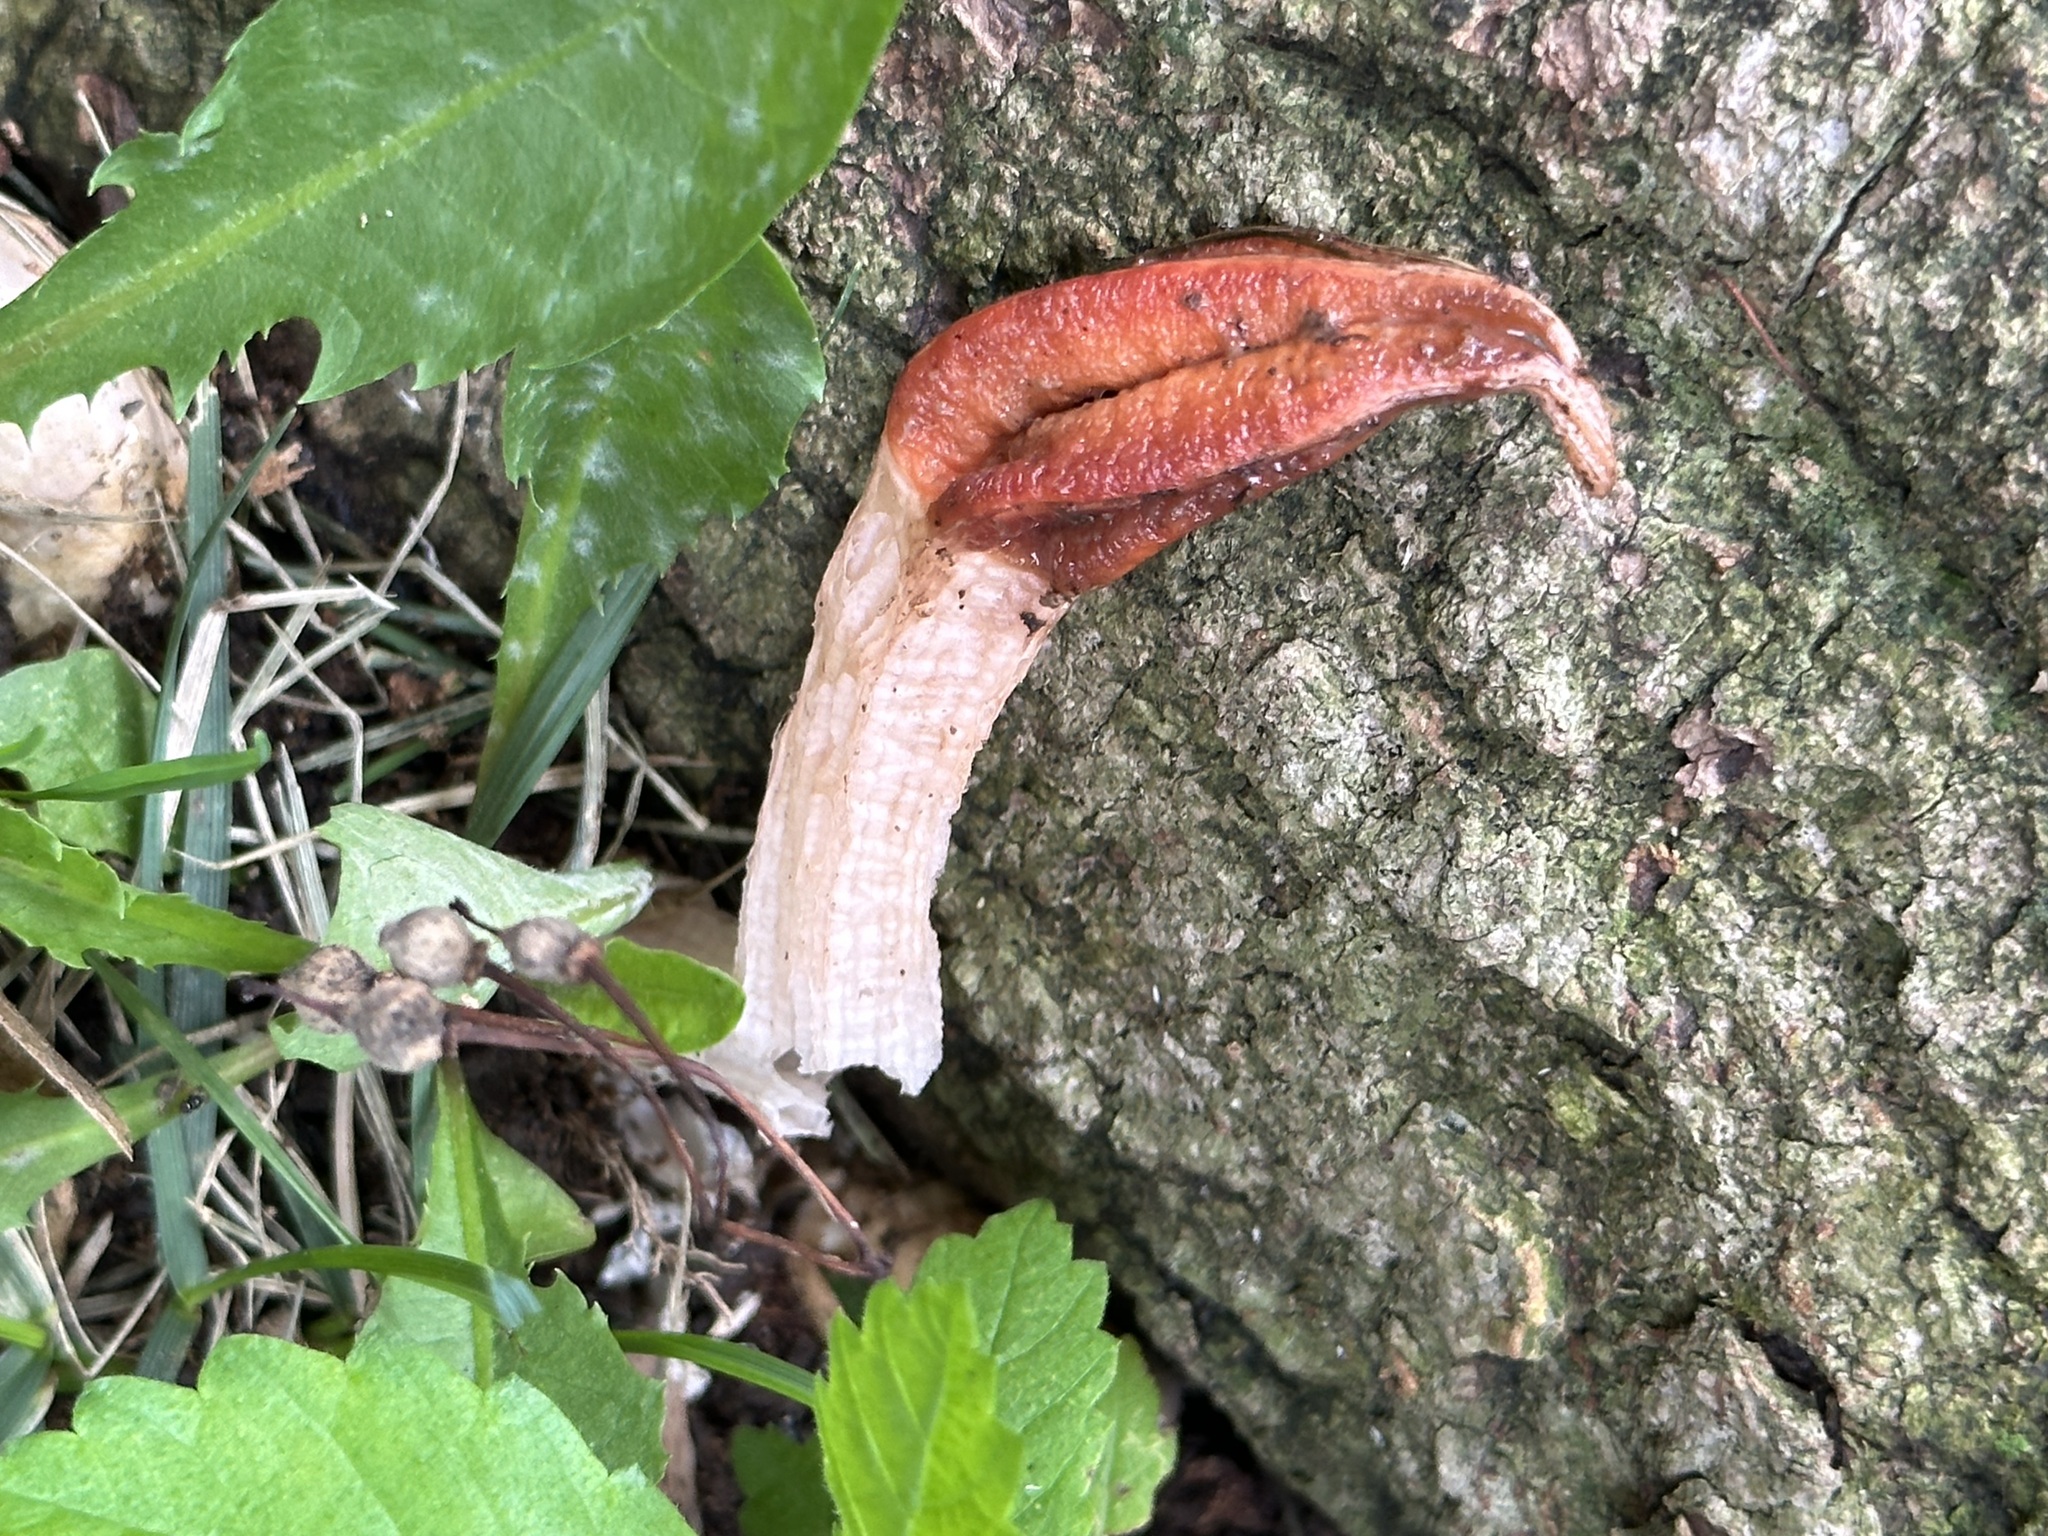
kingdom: Fungi
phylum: Basidiomycota
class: Agaricomycetes
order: Phallales
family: Phallaceae
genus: Lysurus
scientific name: Lysurus mokusin
